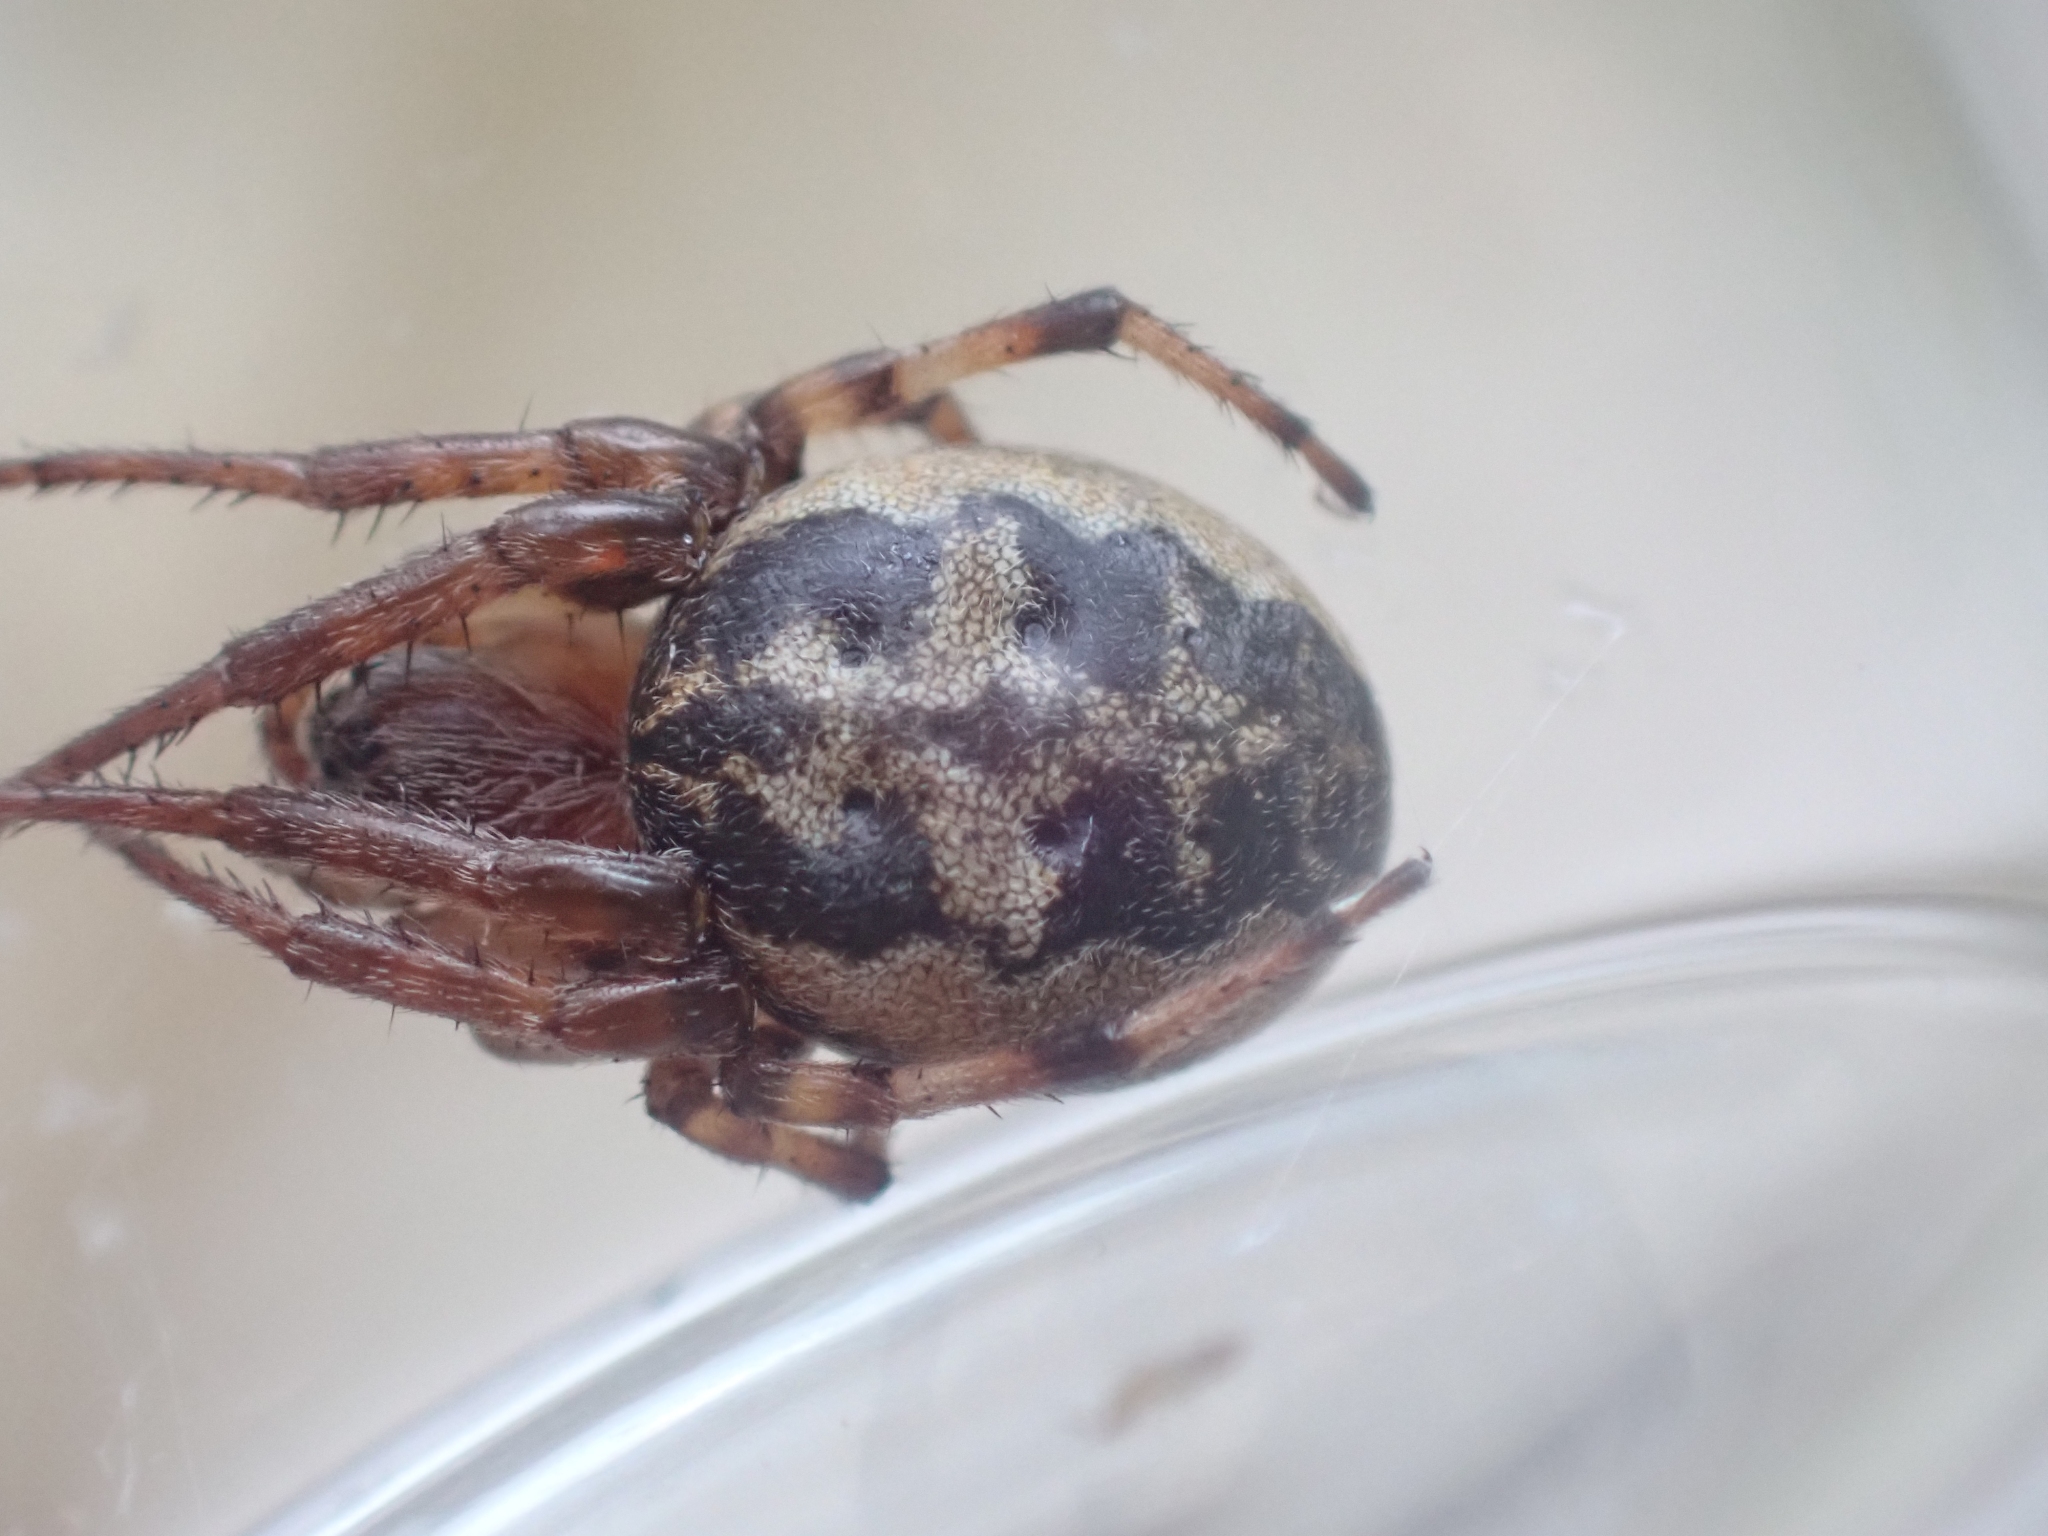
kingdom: Animalia
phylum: Arthropoda
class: Arachnida
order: Araneae
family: Araneidae
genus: Larinioides
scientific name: Larinioides cornutus
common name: Furrow orbweaver
